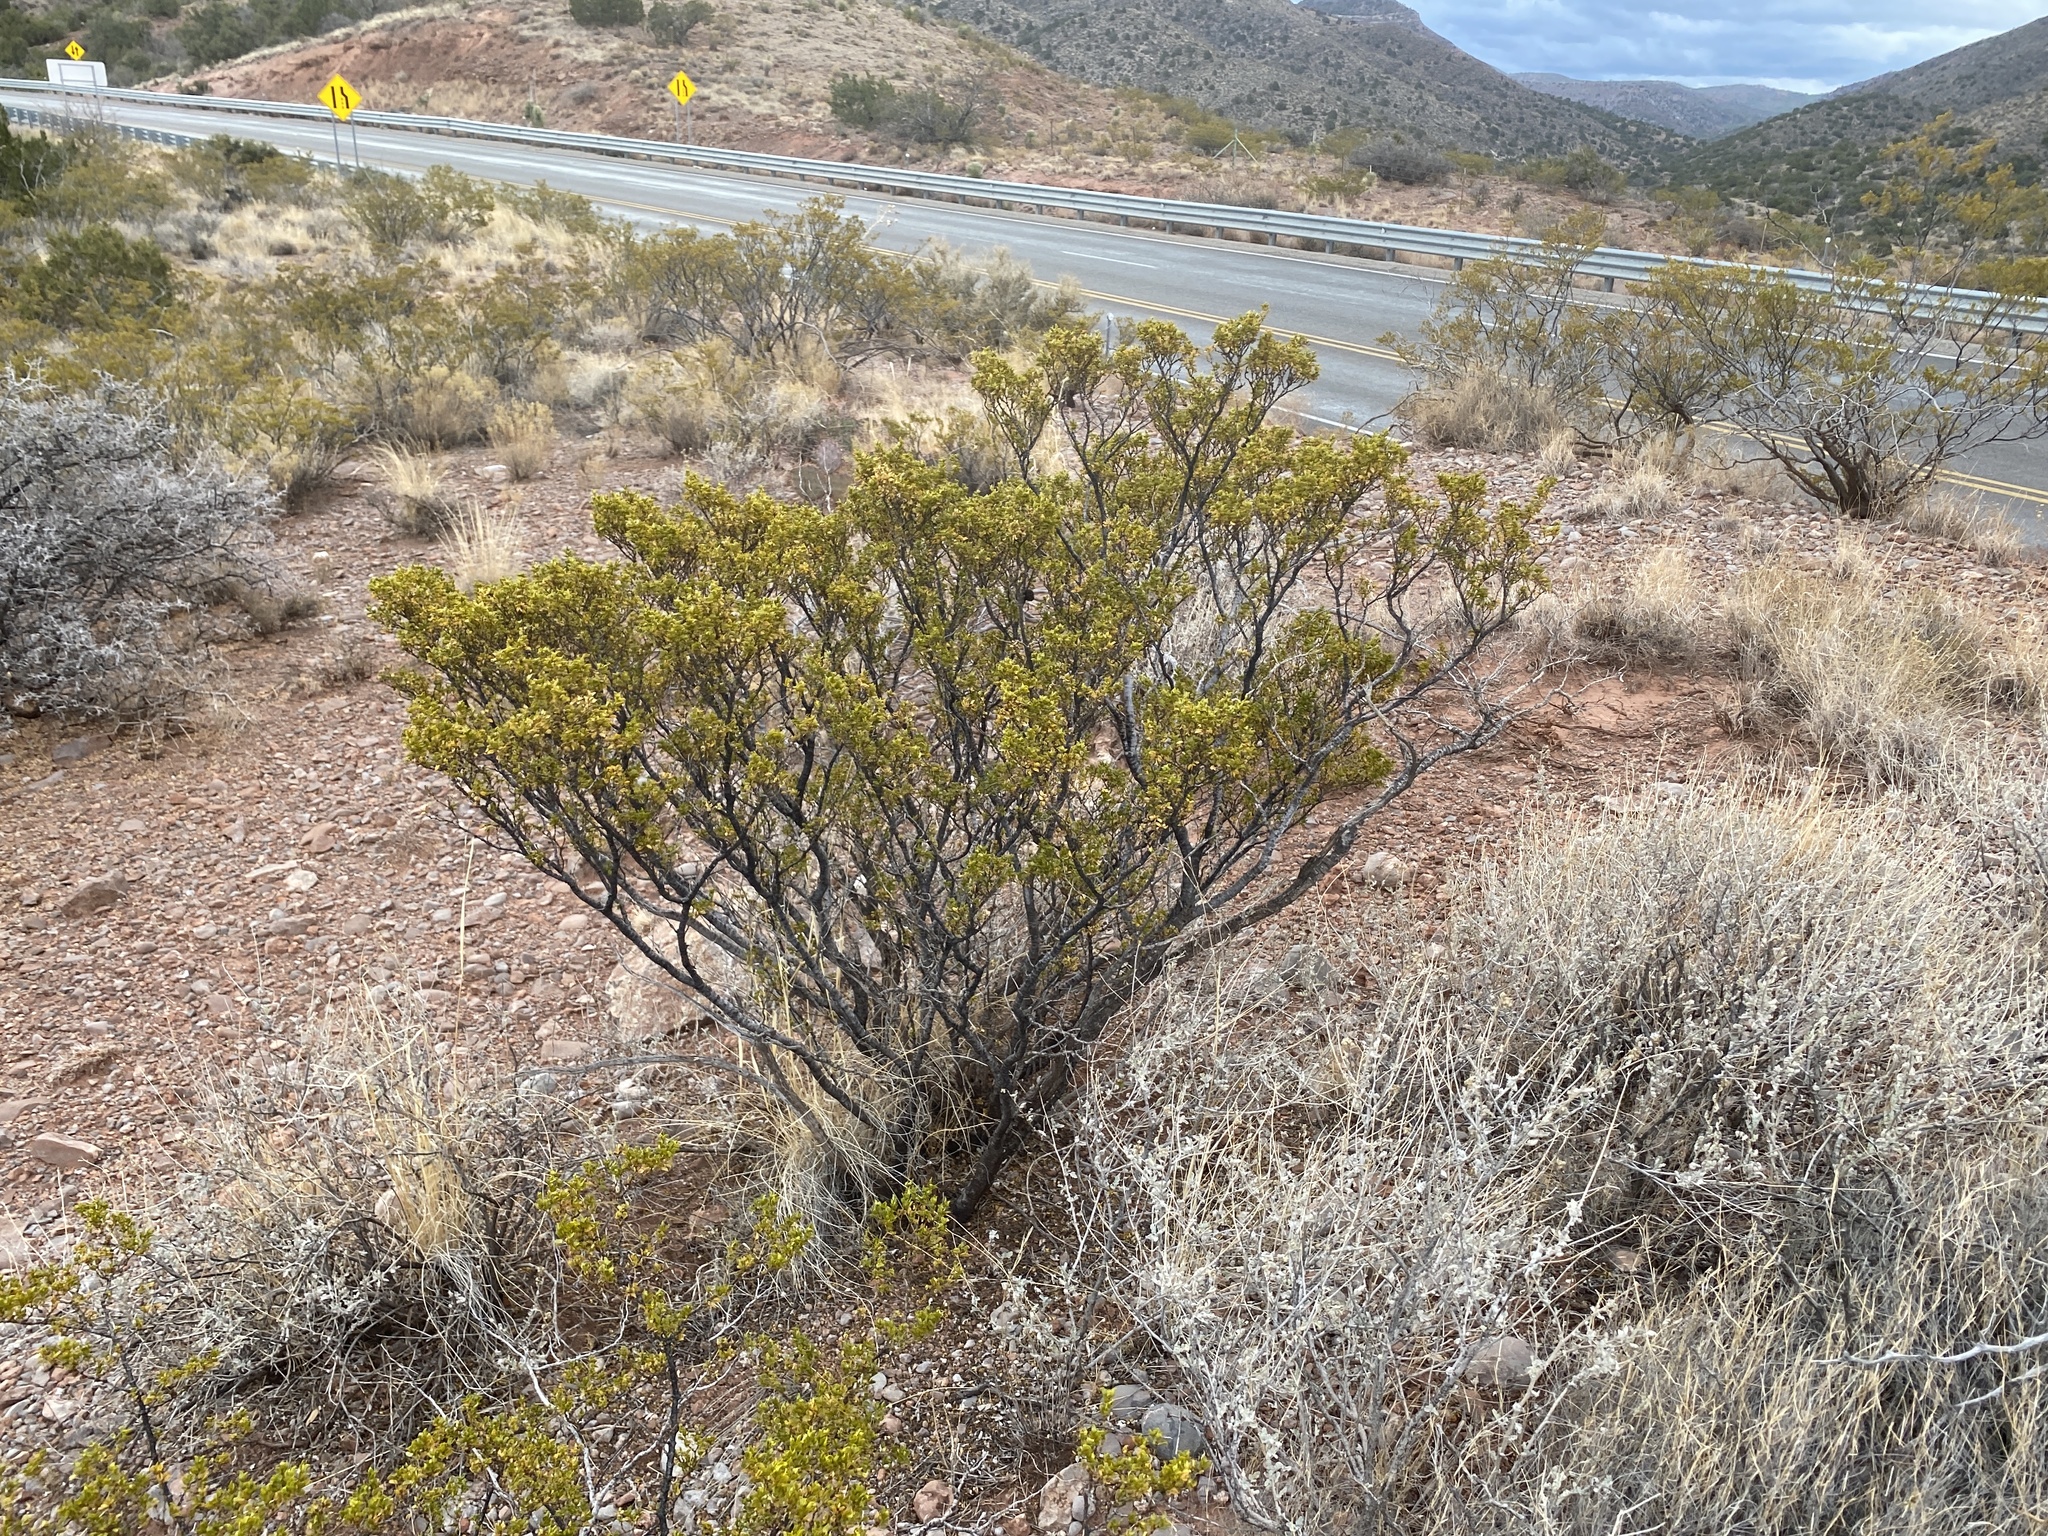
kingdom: Plantae
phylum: Tracheophyta
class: Magnoliopsida
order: Zygophyllales
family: Zygophyllaceae
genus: Larrea
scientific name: Larrea tridentata
